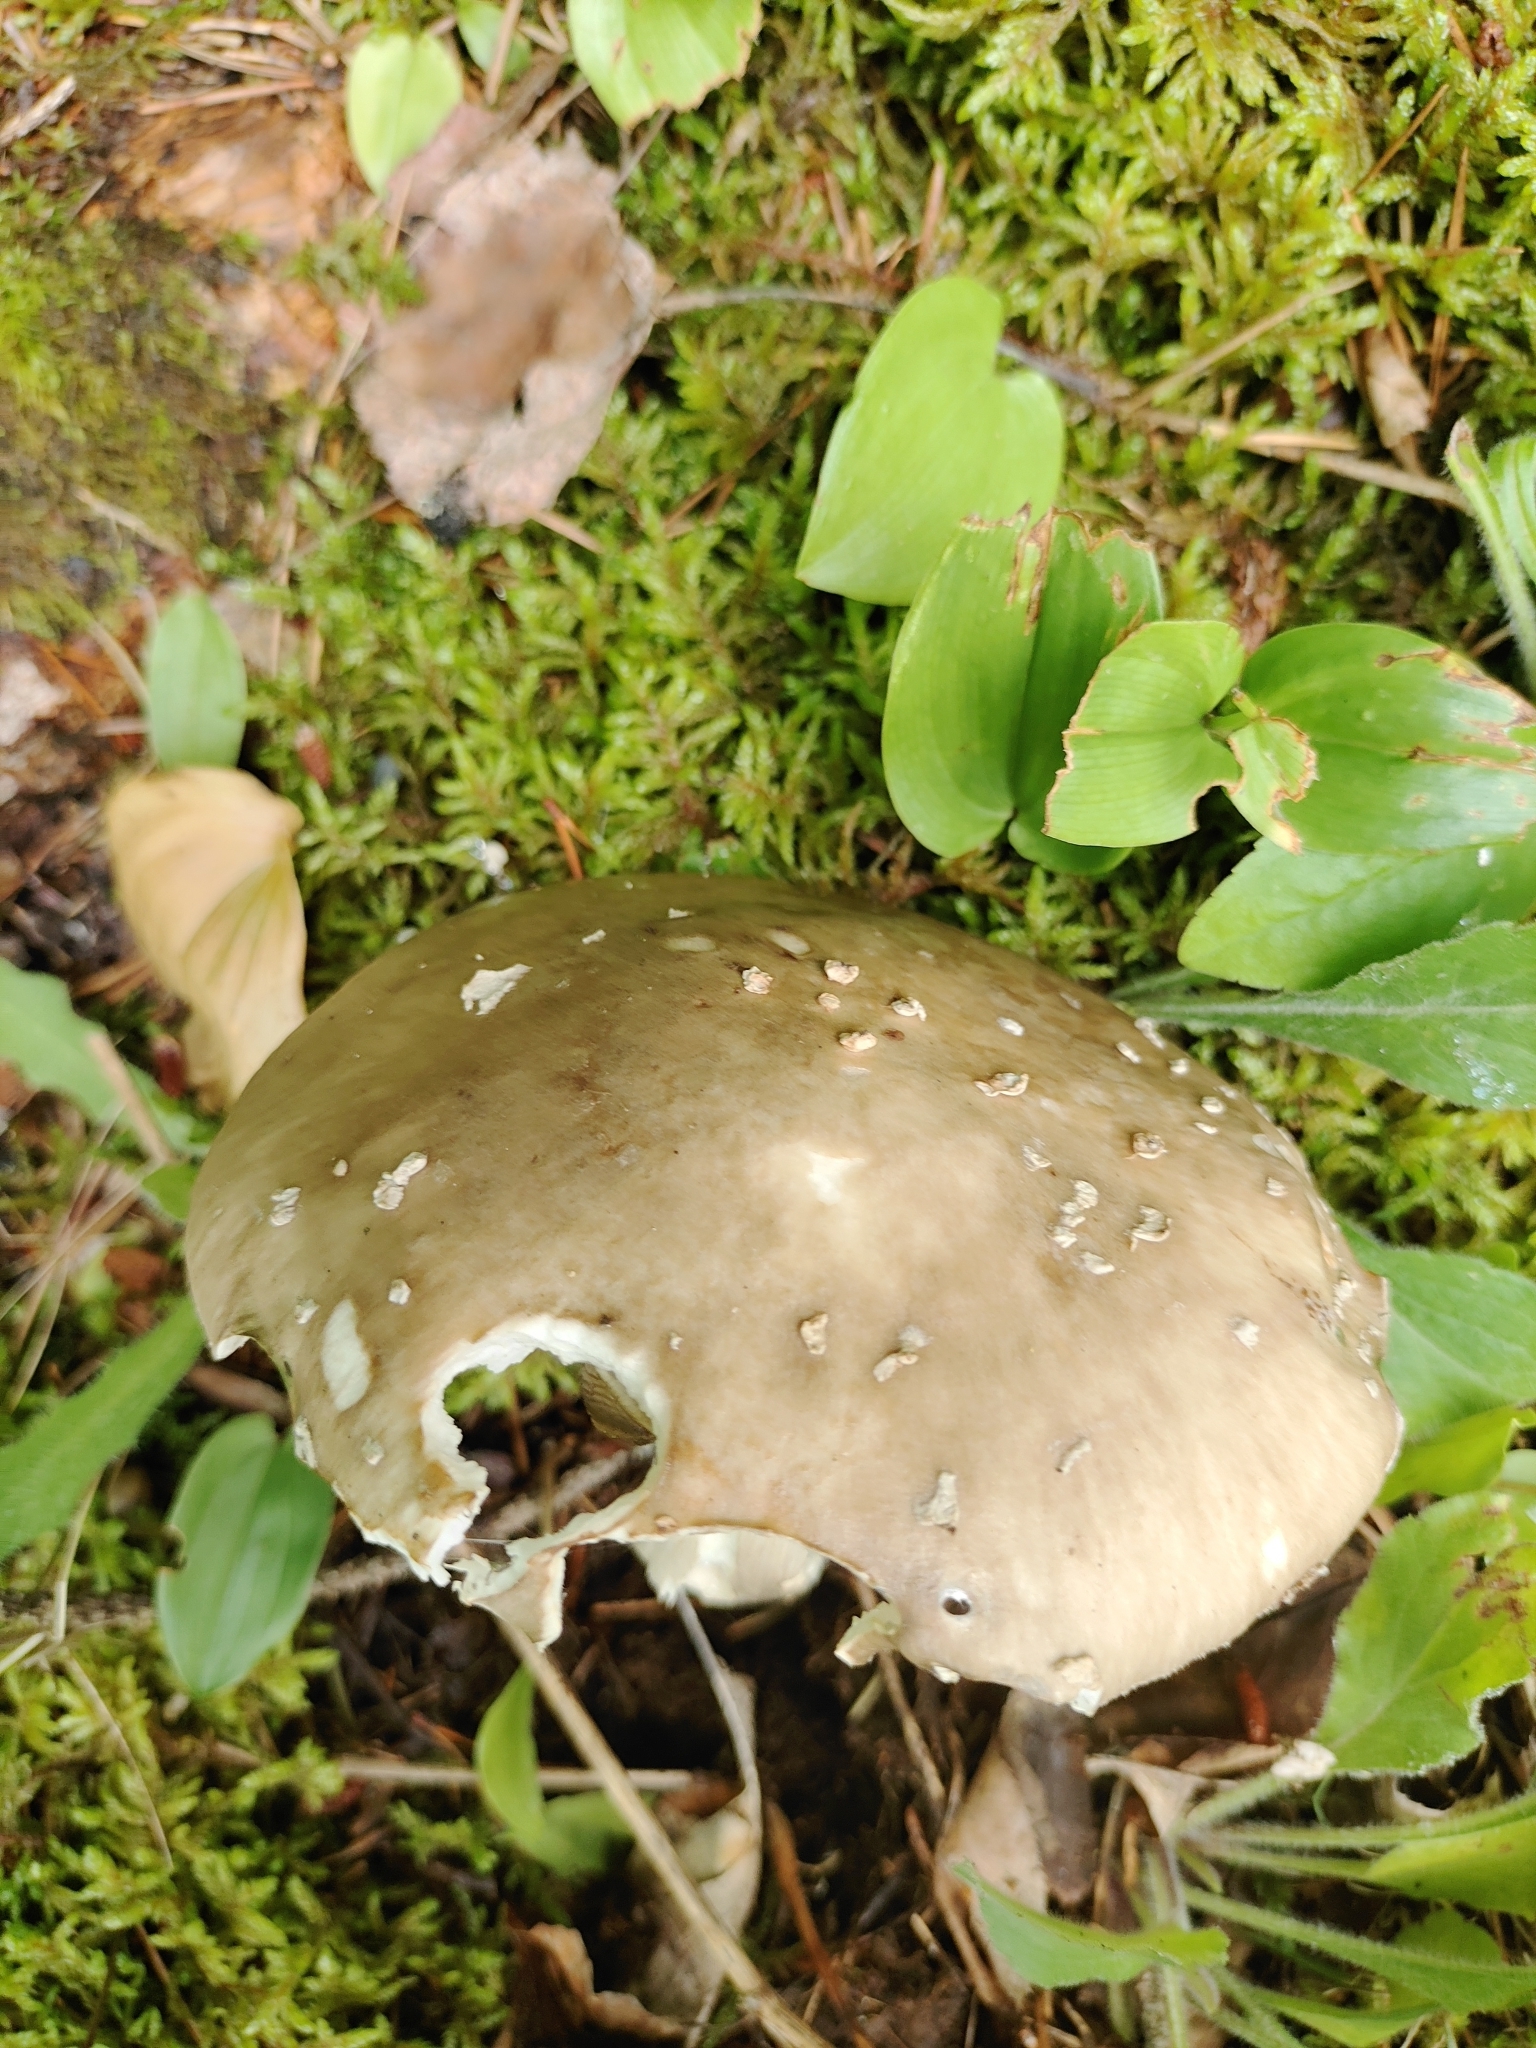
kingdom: Fungi
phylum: Basidiomycota
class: Agaricomycetes
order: Agaricales
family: Amanitaceae
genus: Amanita
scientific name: Amanita submaculata
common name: Ball gown amanita
